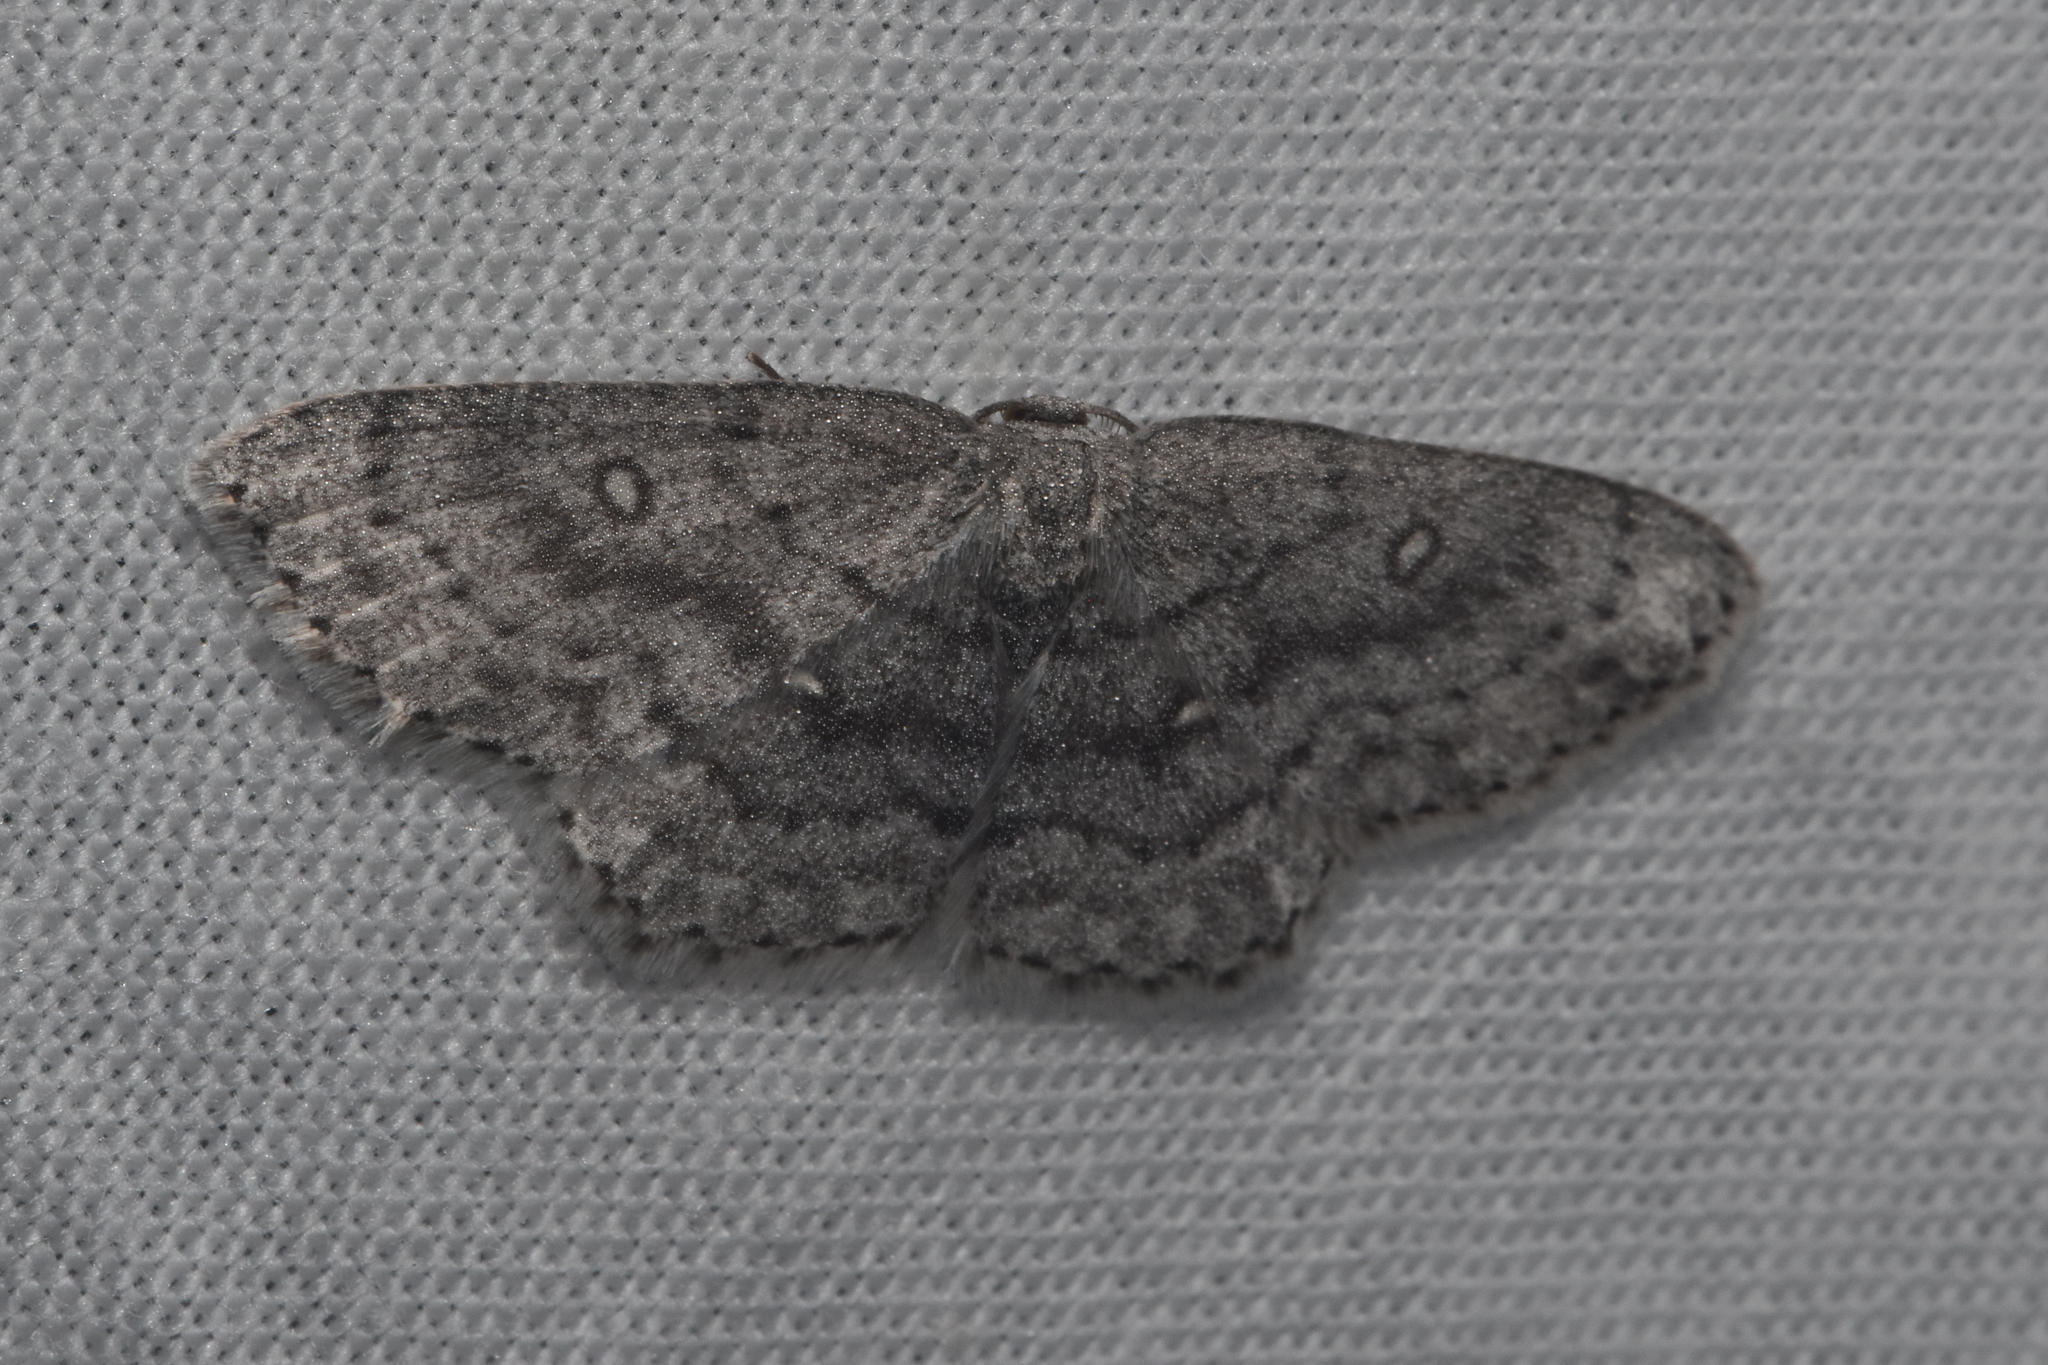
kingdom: Animalia
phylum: Arthropoda
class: Insecta
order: Lepidoptera
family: Geometridae
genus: Cyclophora
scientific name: Cyclophora pendulinaria
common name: Sweet fern geometer
